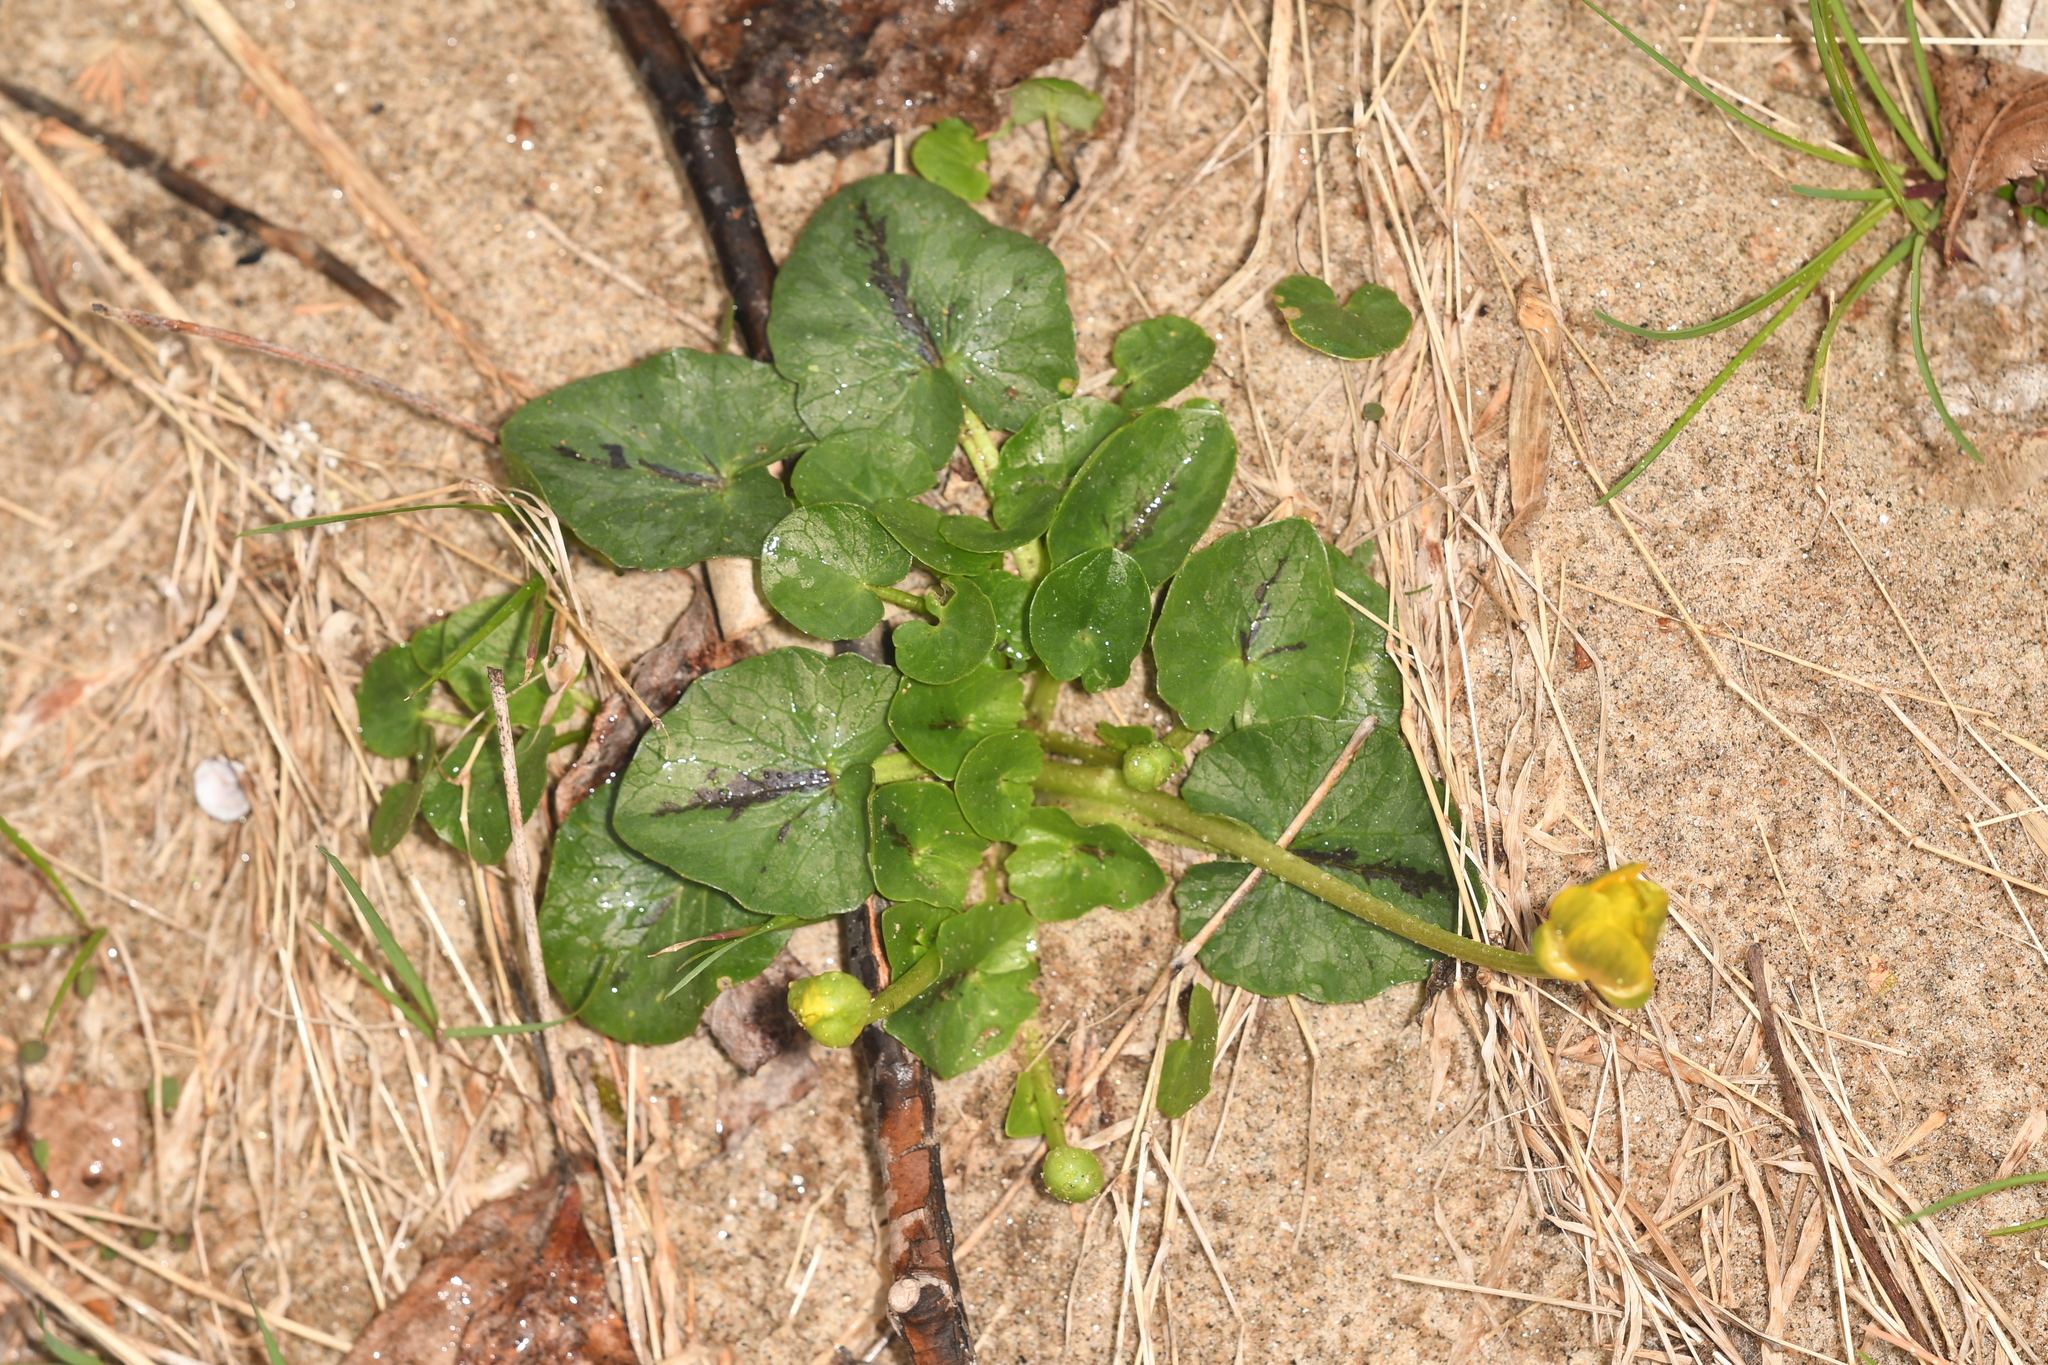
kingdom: Plantae
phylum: Tracheophyta
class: Magnoliopsida
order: Ranunculales
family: Ranunculaceae
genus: Ficaria
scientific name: Ficaria verna
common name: Lesser celandine
